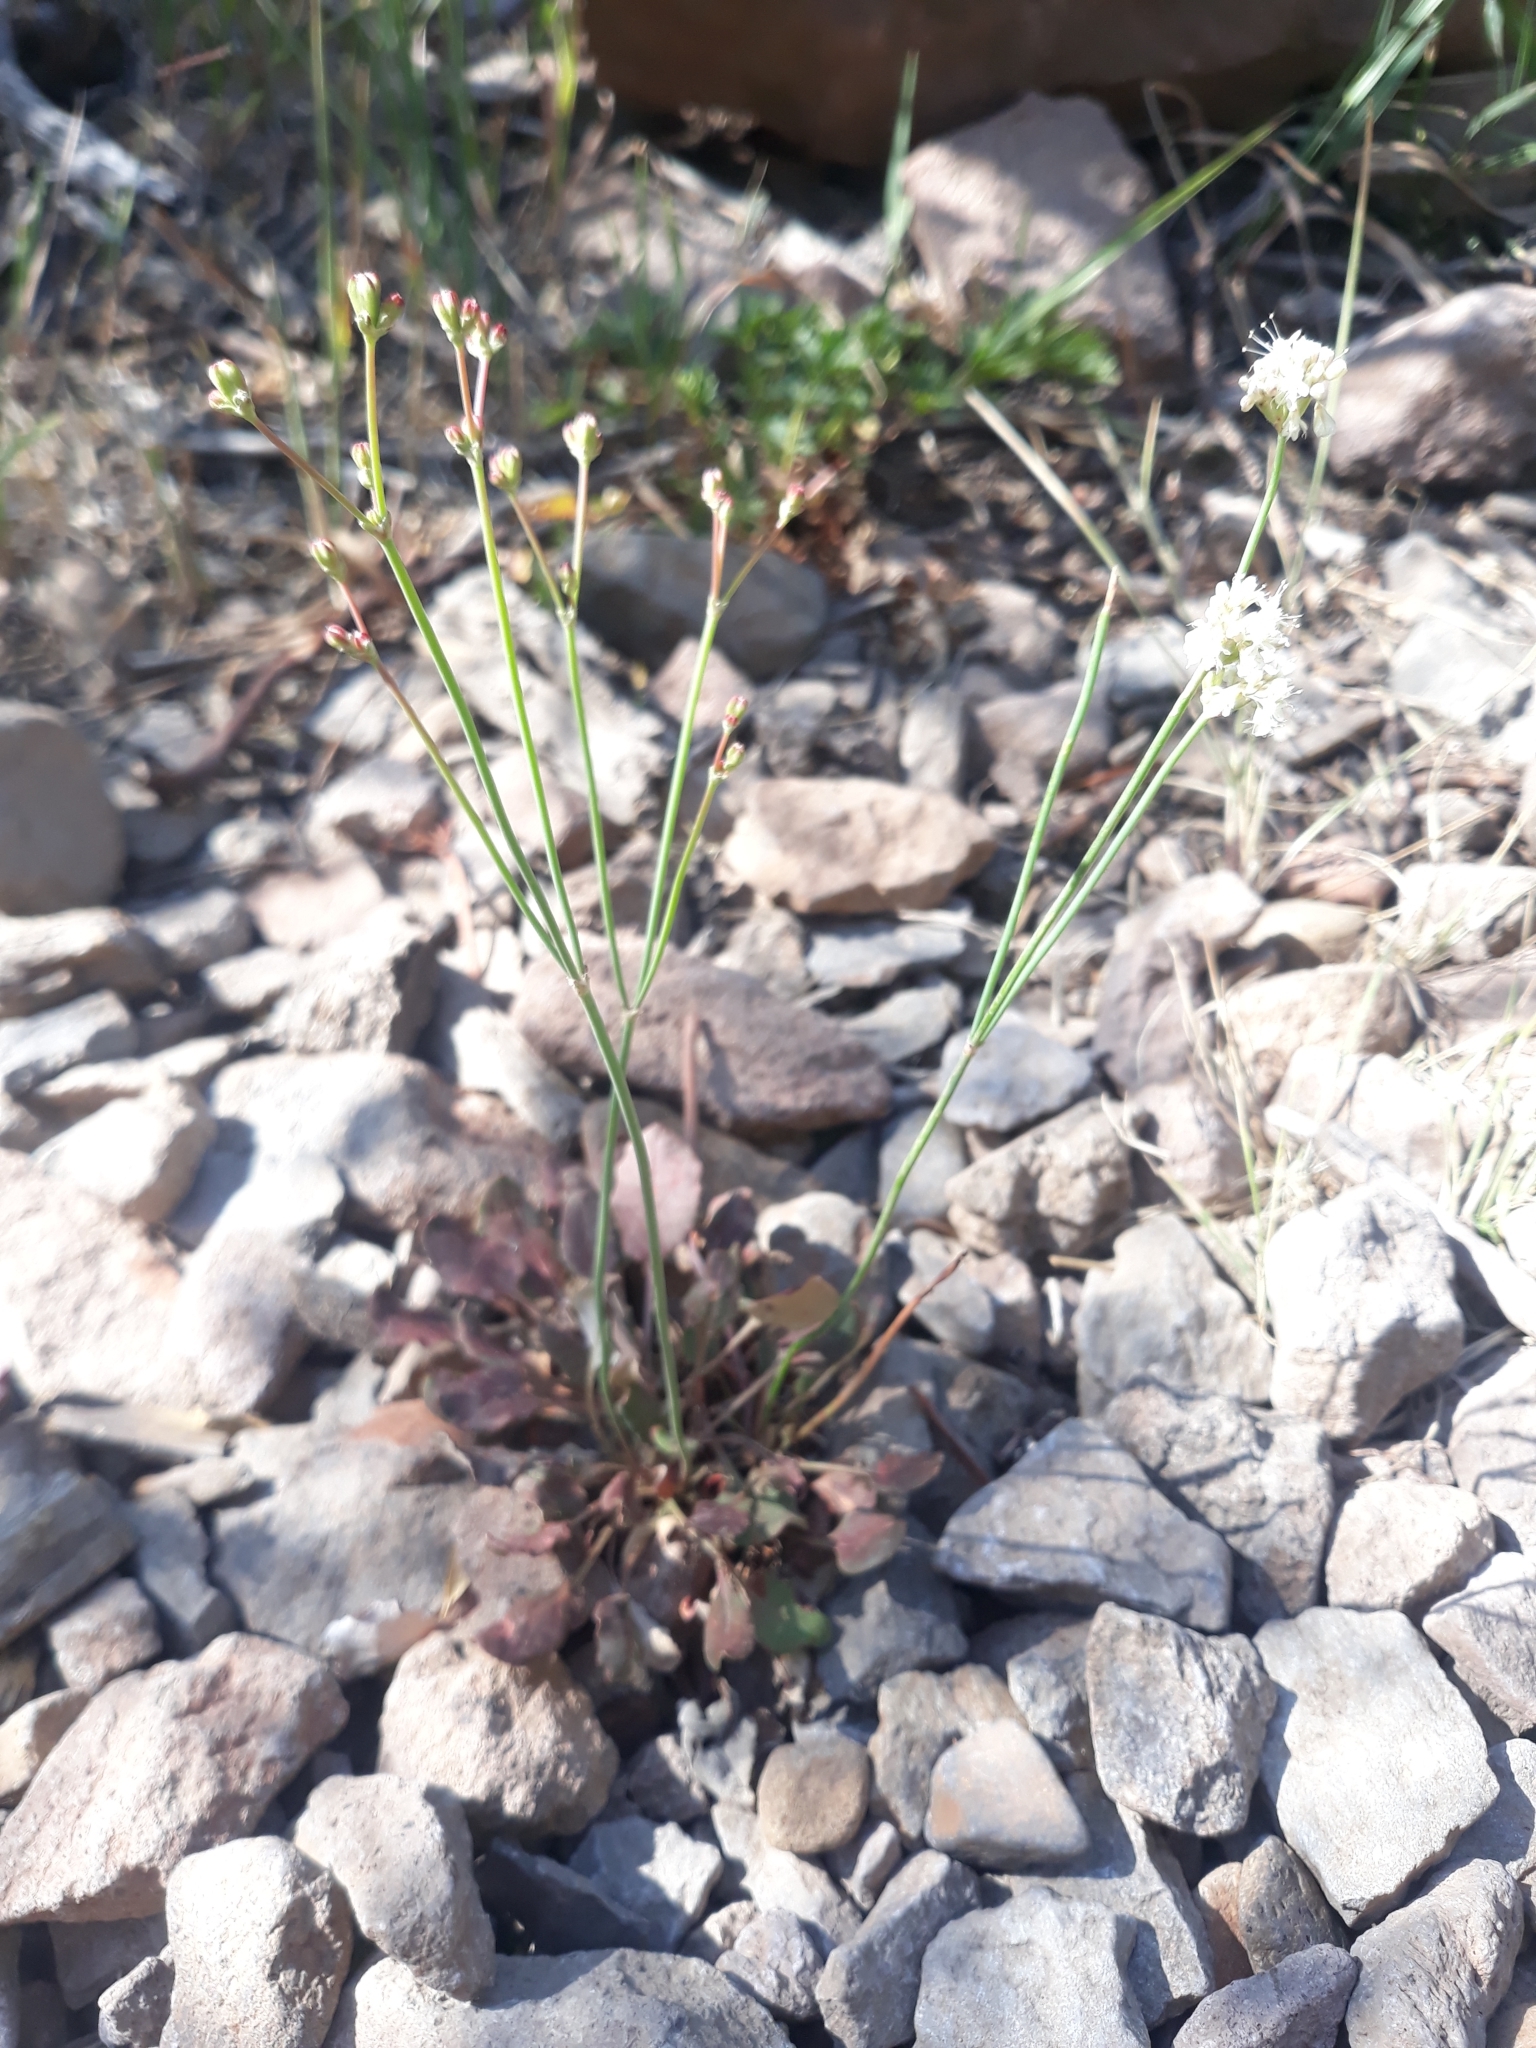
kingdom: Plantae
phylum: Tracheophyta
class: Magnoliopsida
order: Caryophyllales
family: Polygonaceae
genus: Eriogonum
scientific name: Eriogonum nudum
